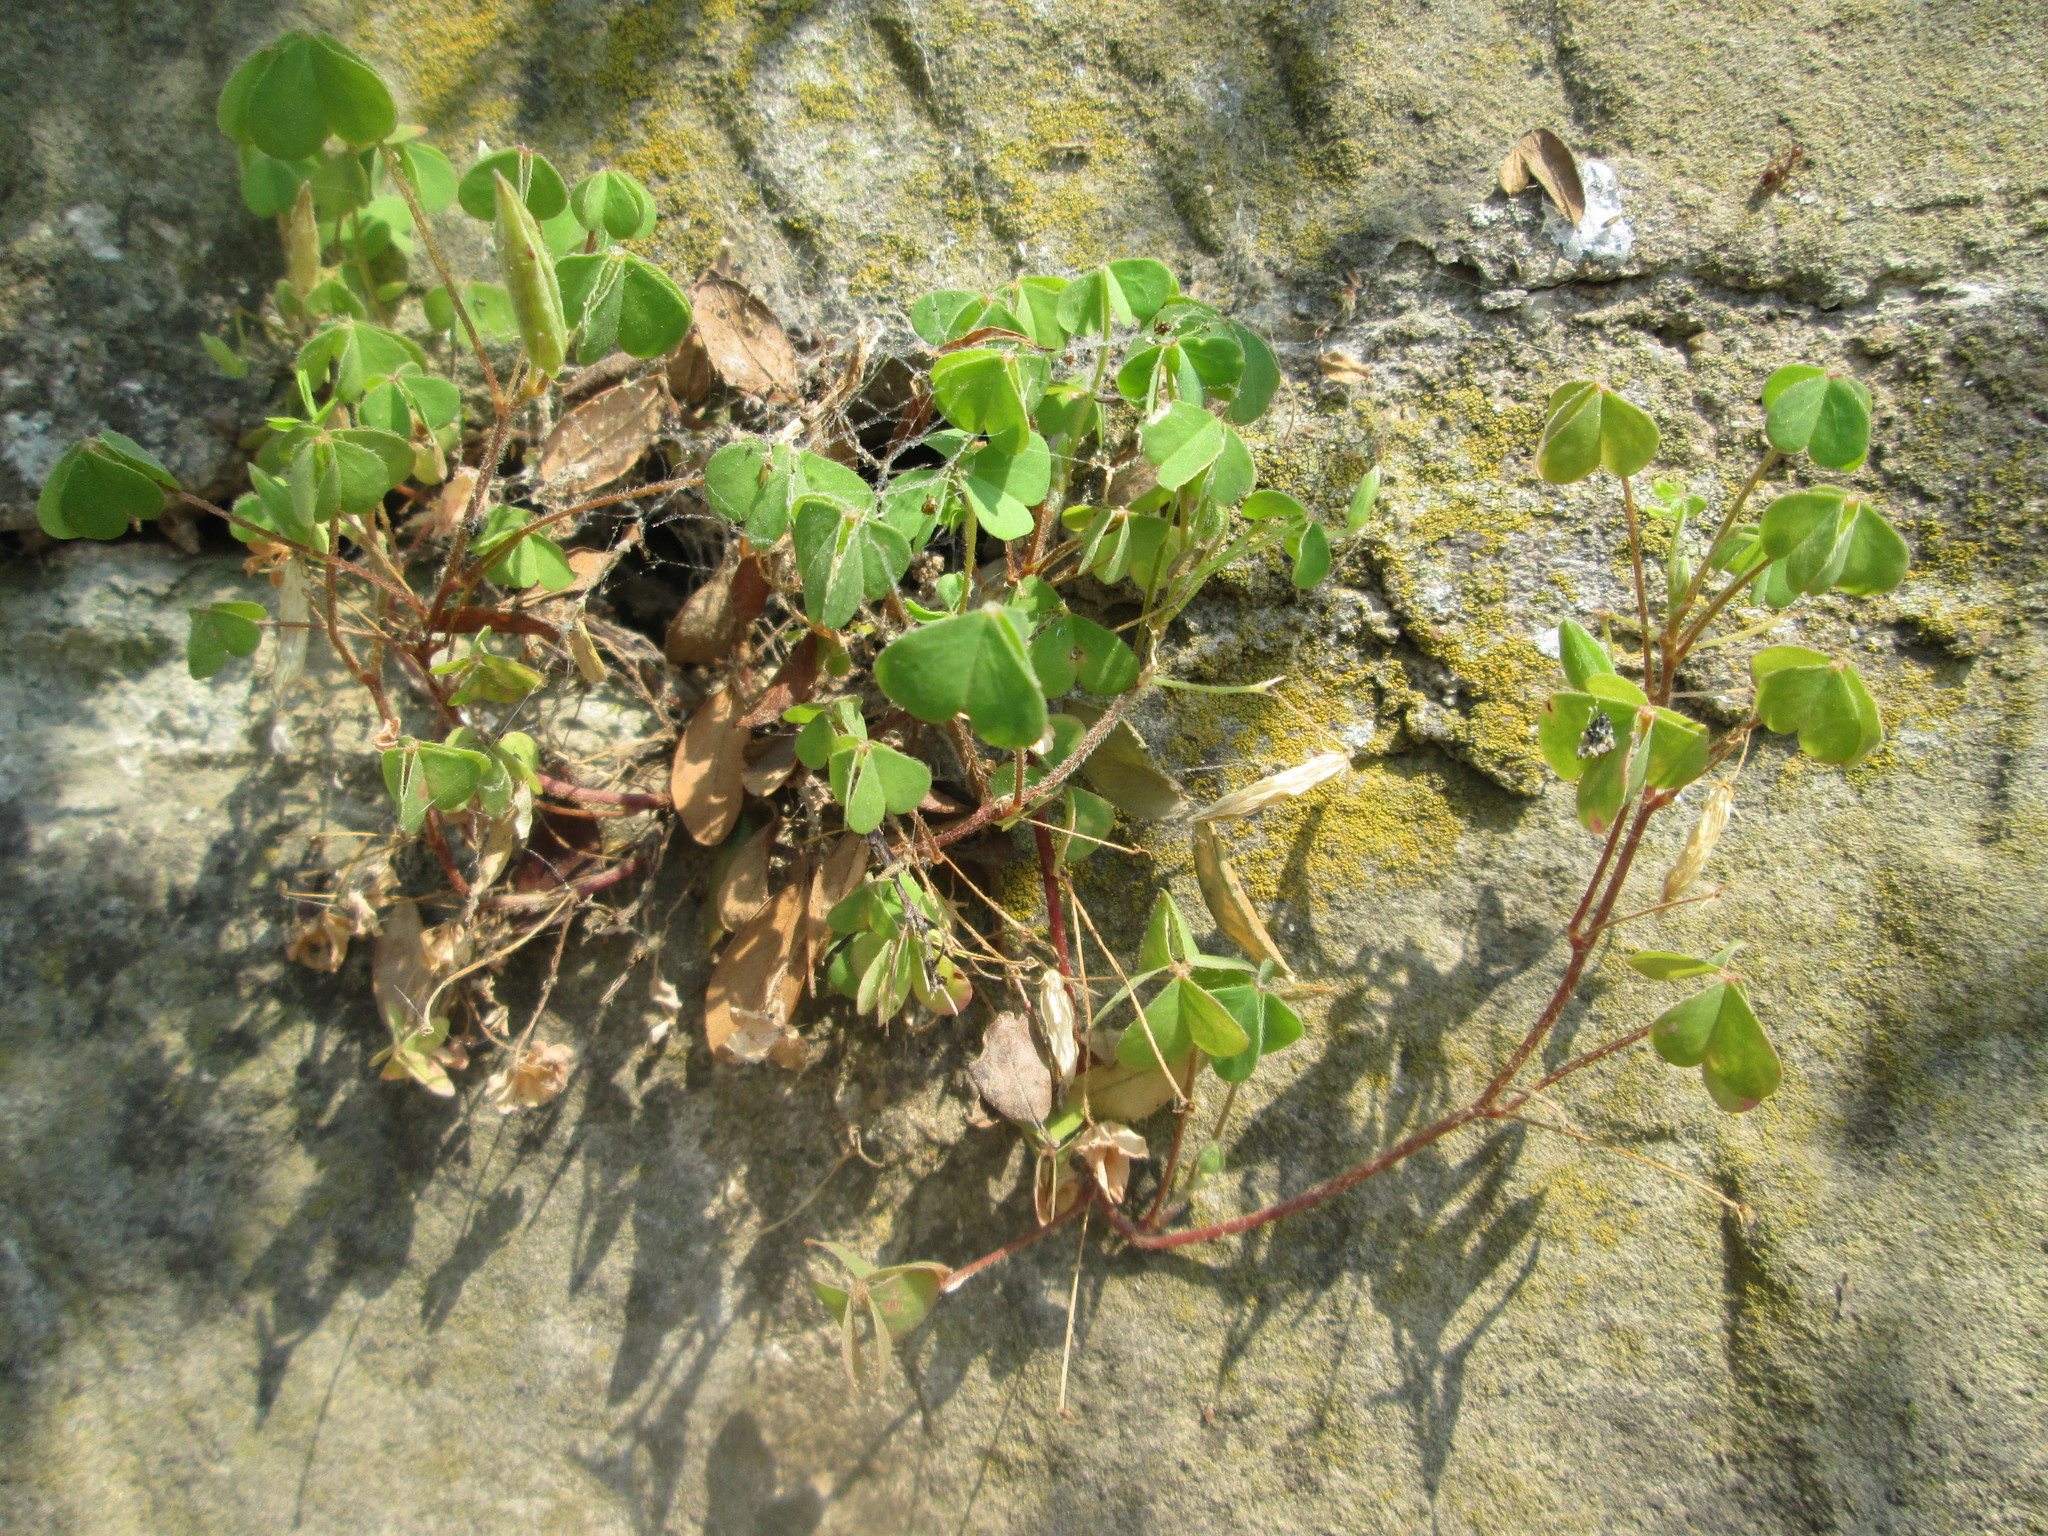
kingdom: Plantae
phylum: Tracheophyta
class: Magnoliopsida
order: Oxalidales
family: Oxalidaceae
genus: Oxalis
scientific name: Oxalis stricta
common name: Upright yellow-sorrel
